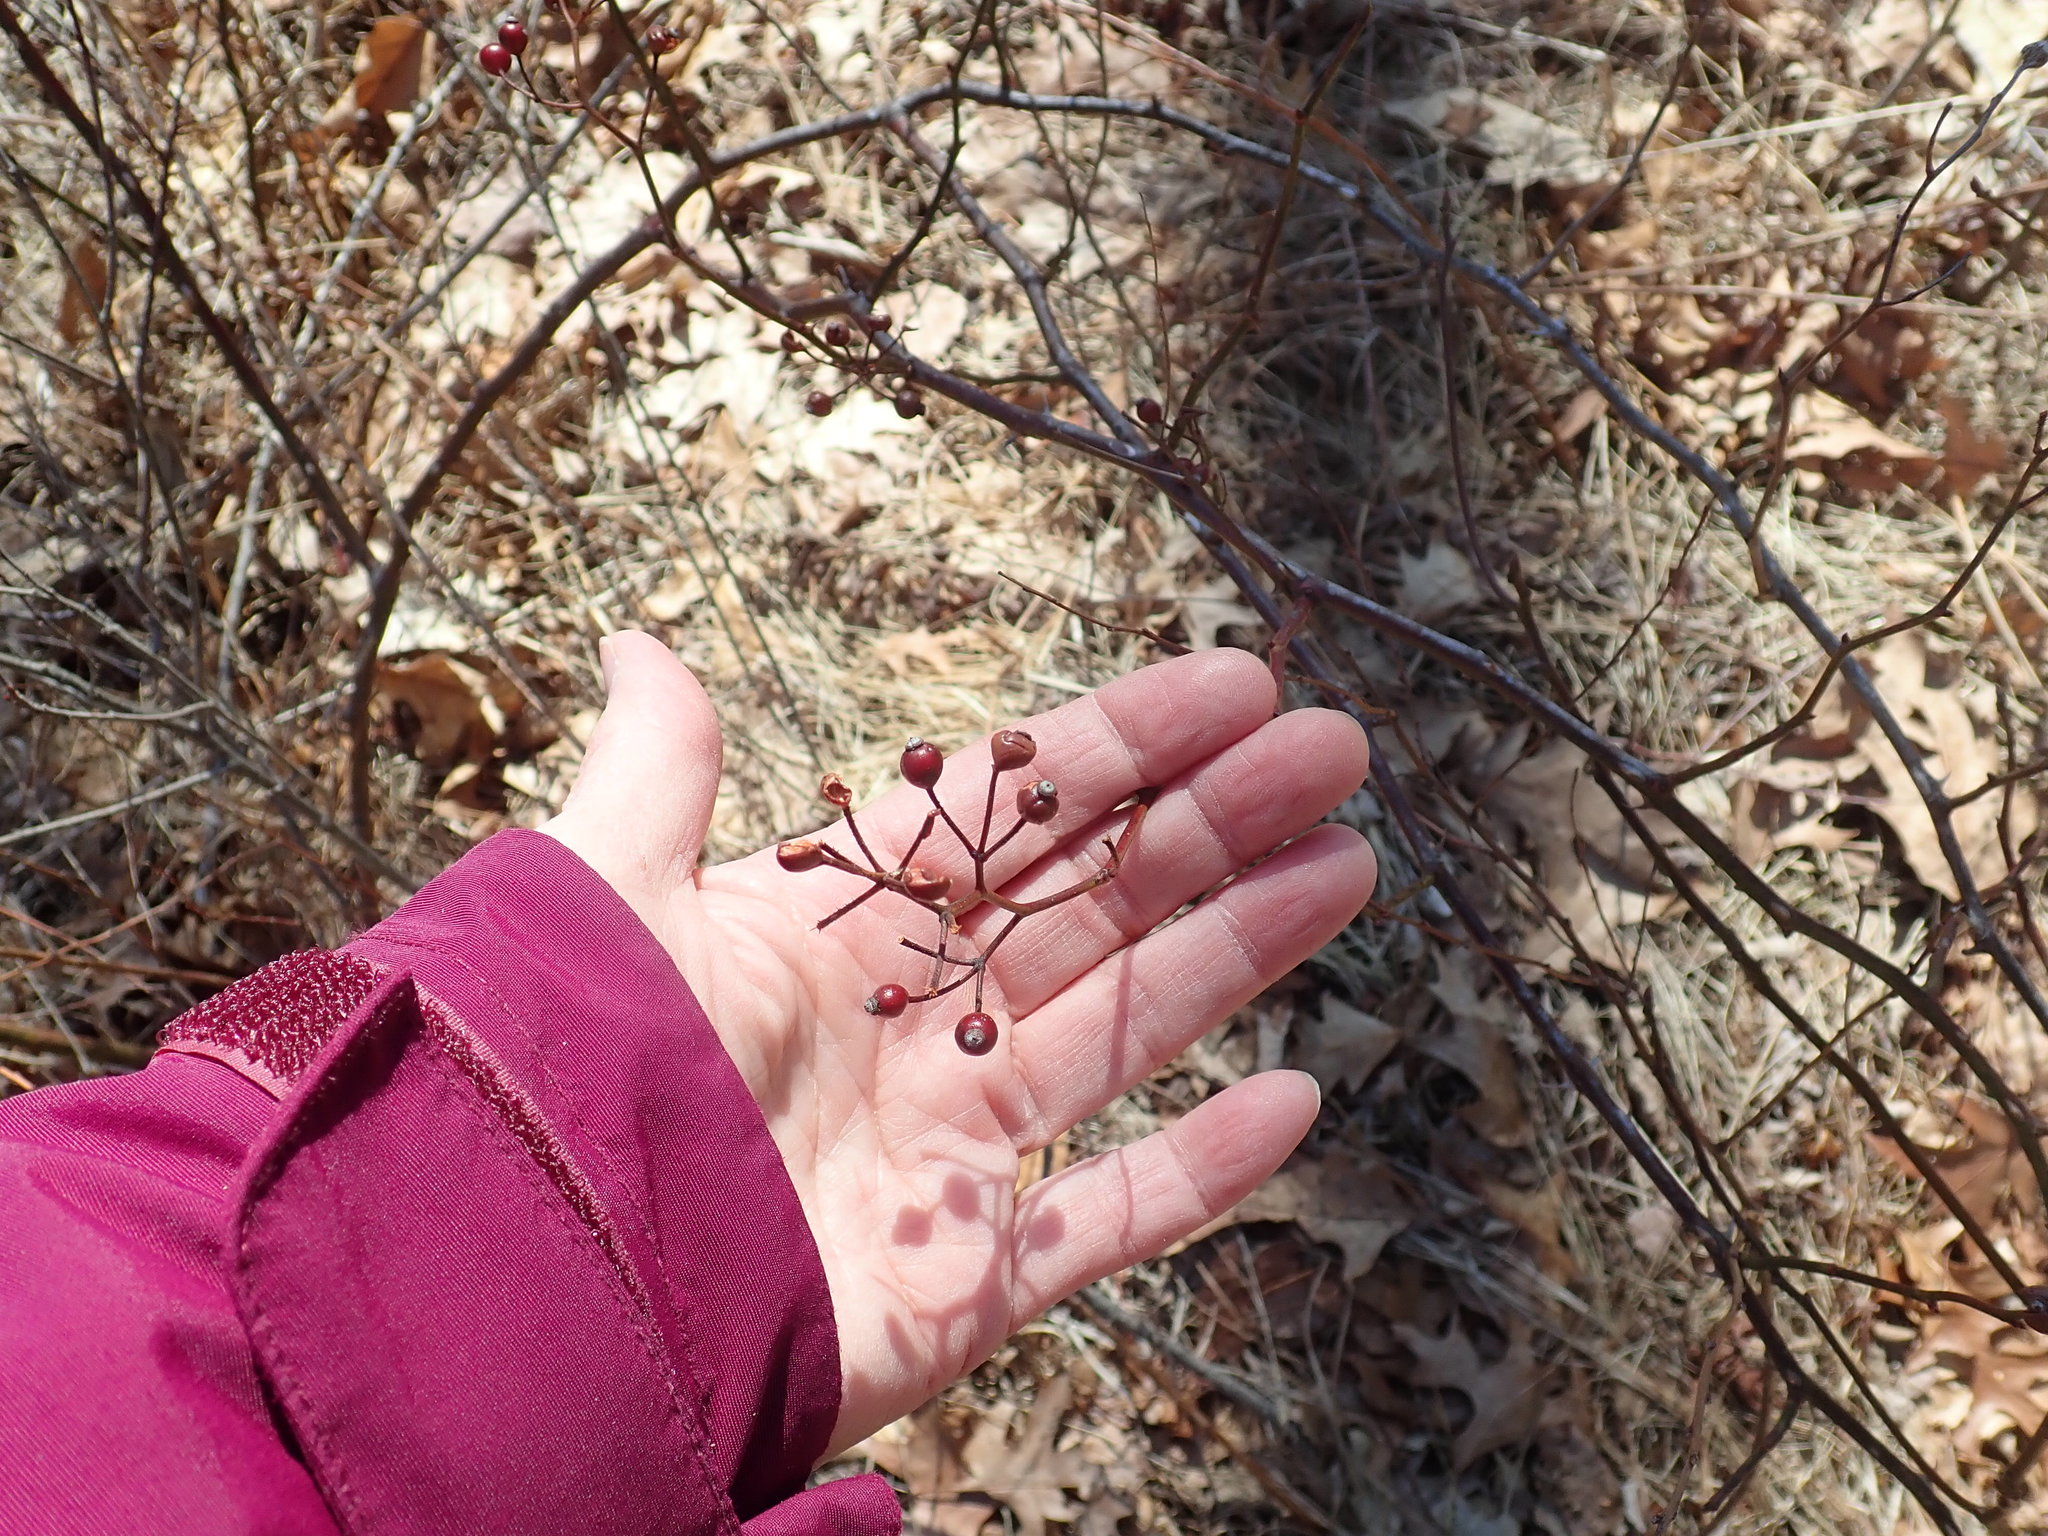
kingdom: Plantae
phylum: Tracheophyta
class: Magnoliopsida
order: Rosales
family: Rosaceae
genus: Rosa
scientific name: Rosa multiflora
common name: Multiflora rose
